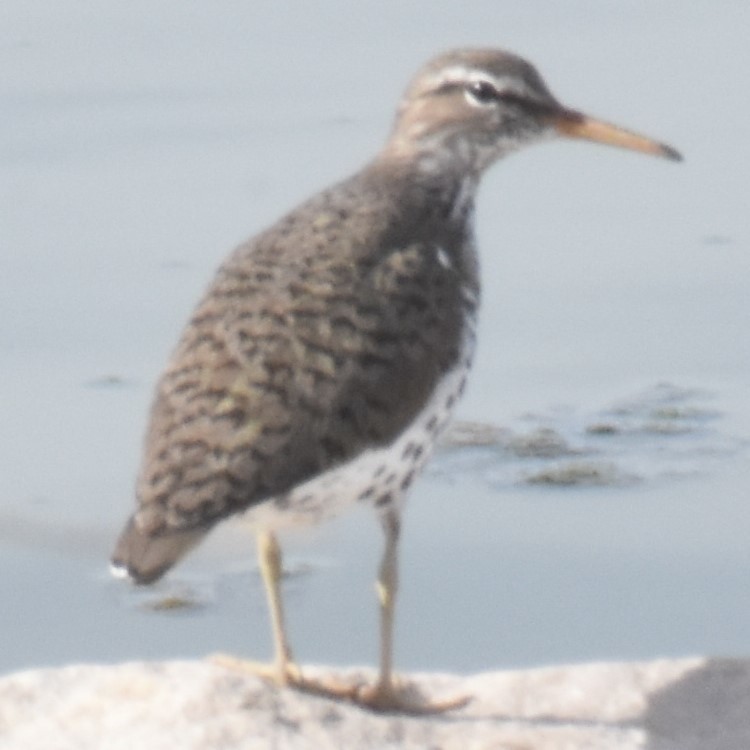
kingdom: Animalia
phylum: Chordata
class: Aves
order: Charadriiformes
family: Scolopacidae
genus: Actitis
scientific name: Actitis macularius
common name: Spotted sandpiper
